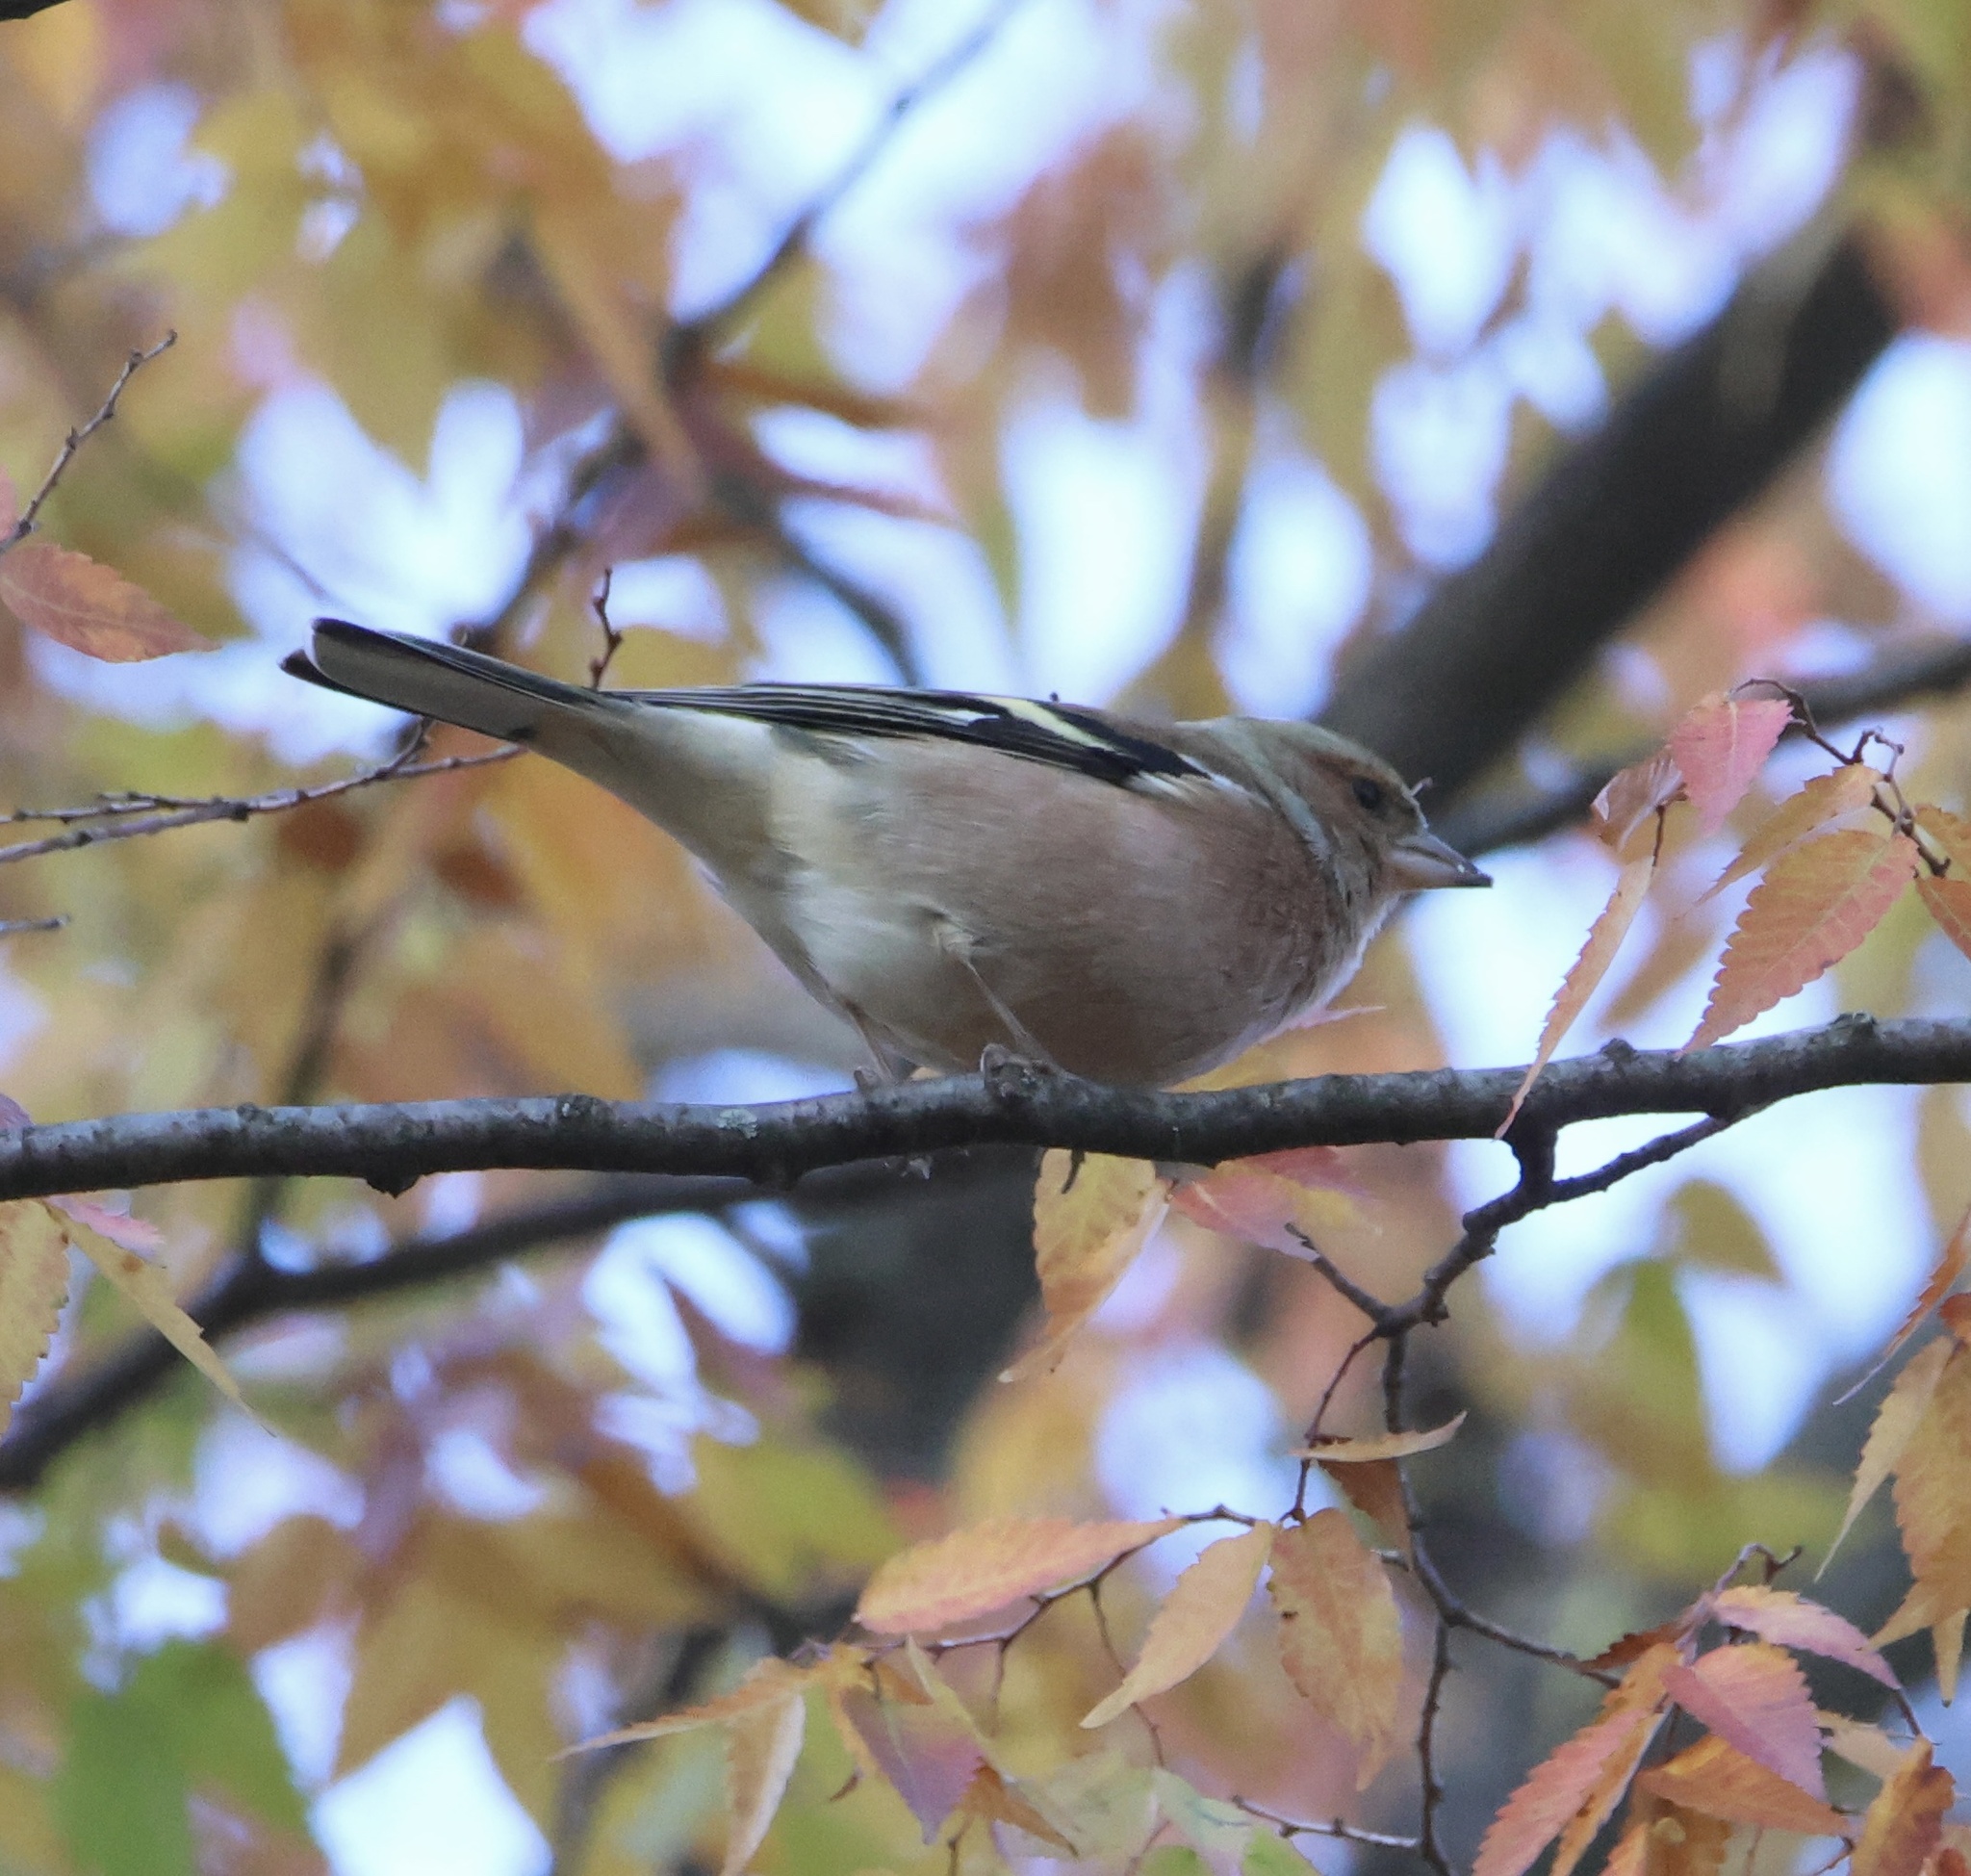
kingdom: Animalia
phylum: Chordata
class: Aves
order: Passeriformes
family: Fringillidae
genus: Fringilla
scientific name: Fringilla coelebs
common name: Common chaffinch
